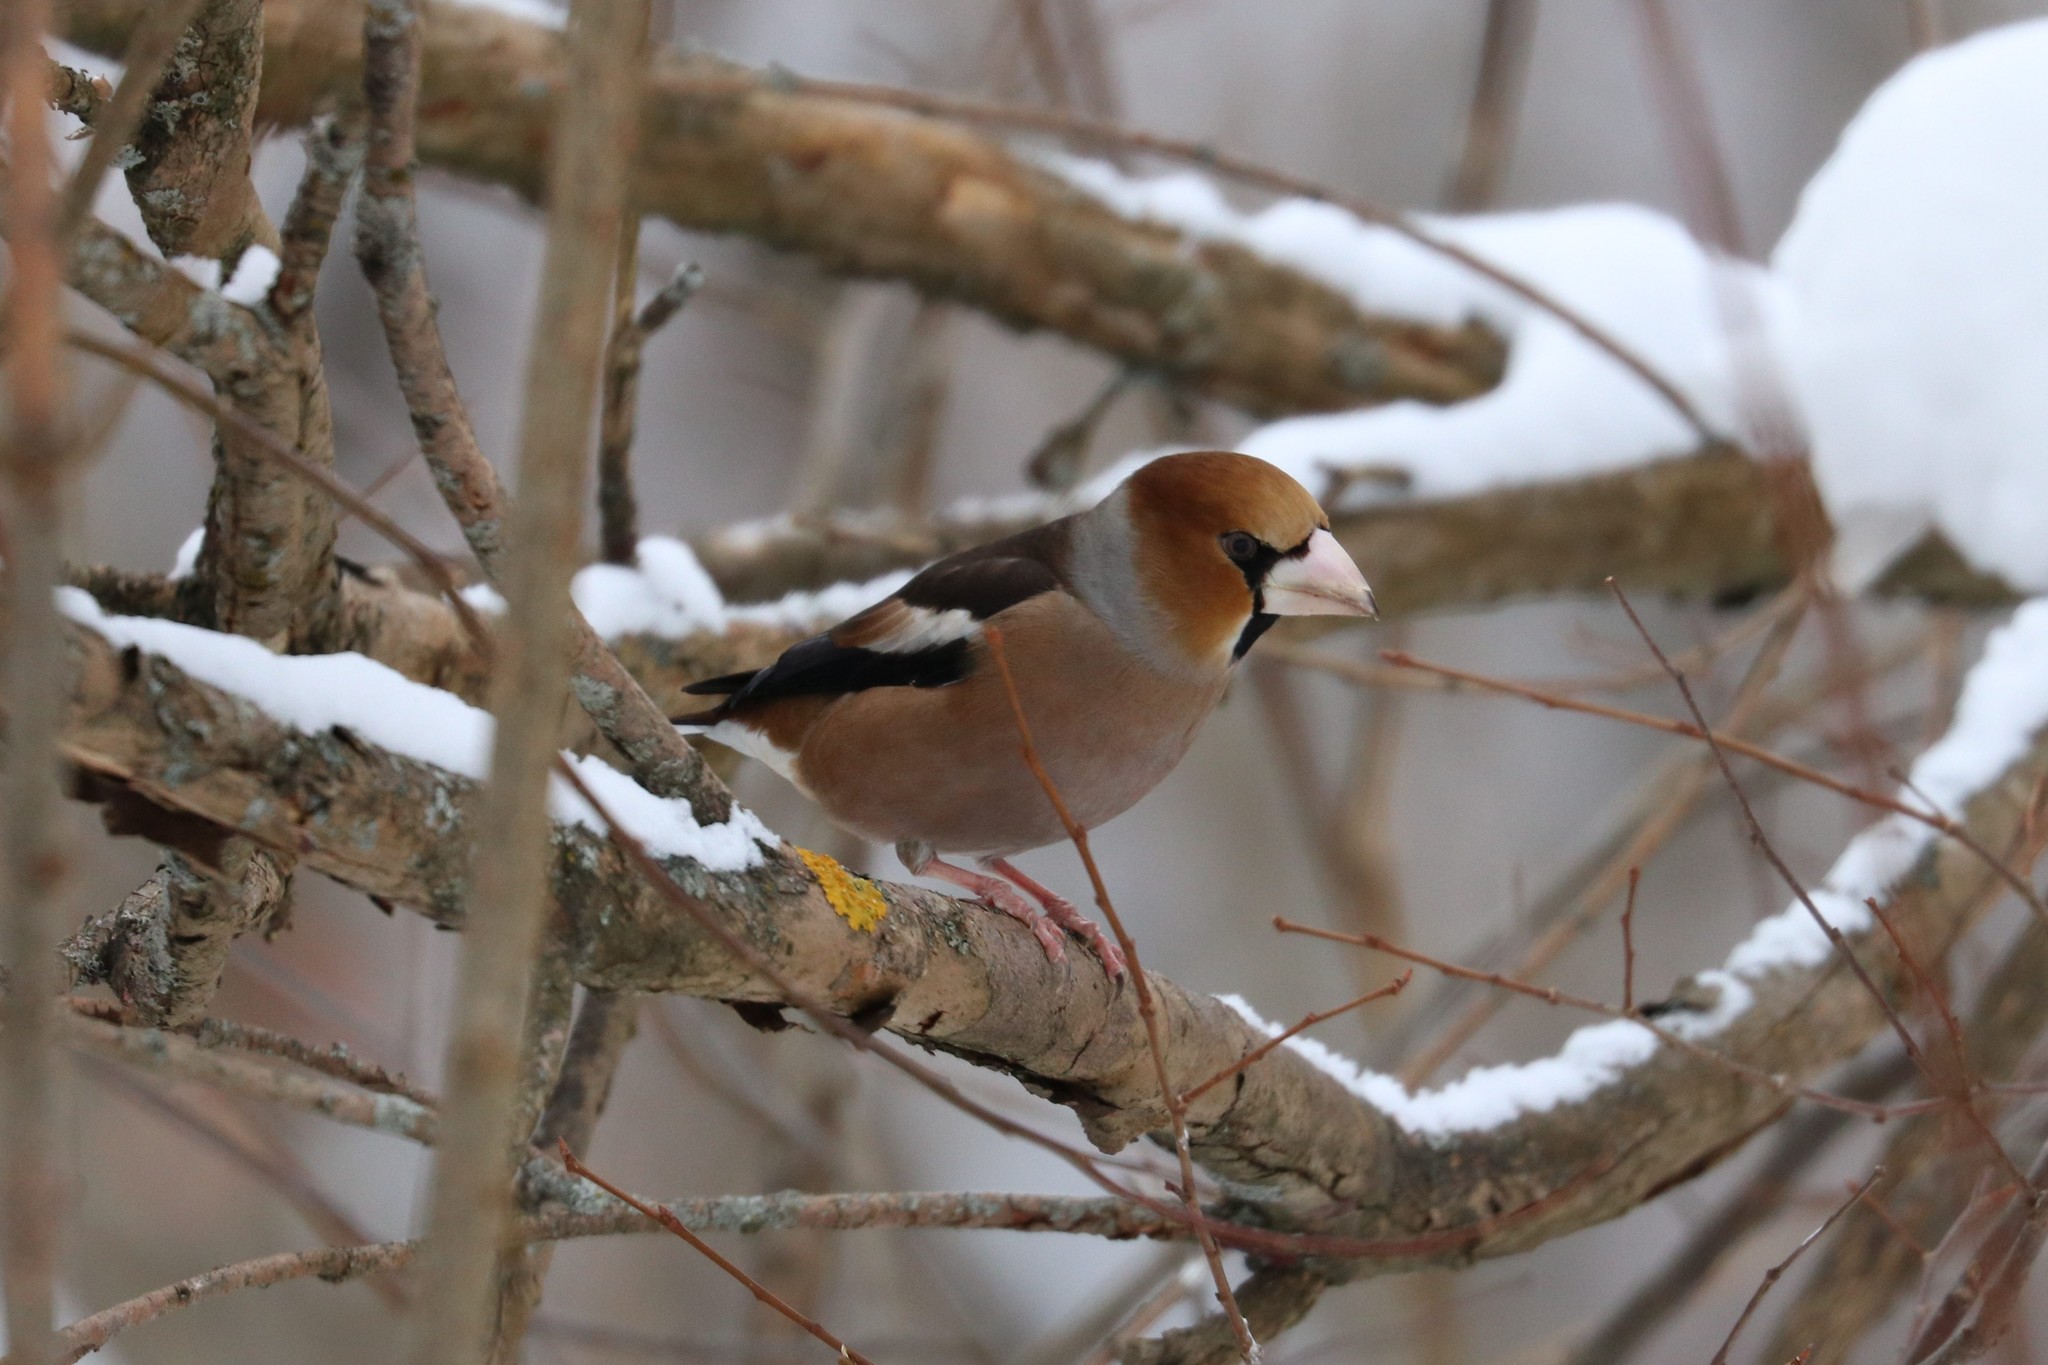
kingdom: Animalia
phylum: Chordata
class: Aves
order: Passeriformes
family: Fringillidae
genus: Coccothraustes
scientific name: Coccothraustes coccothraustes
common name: Hawfinch
